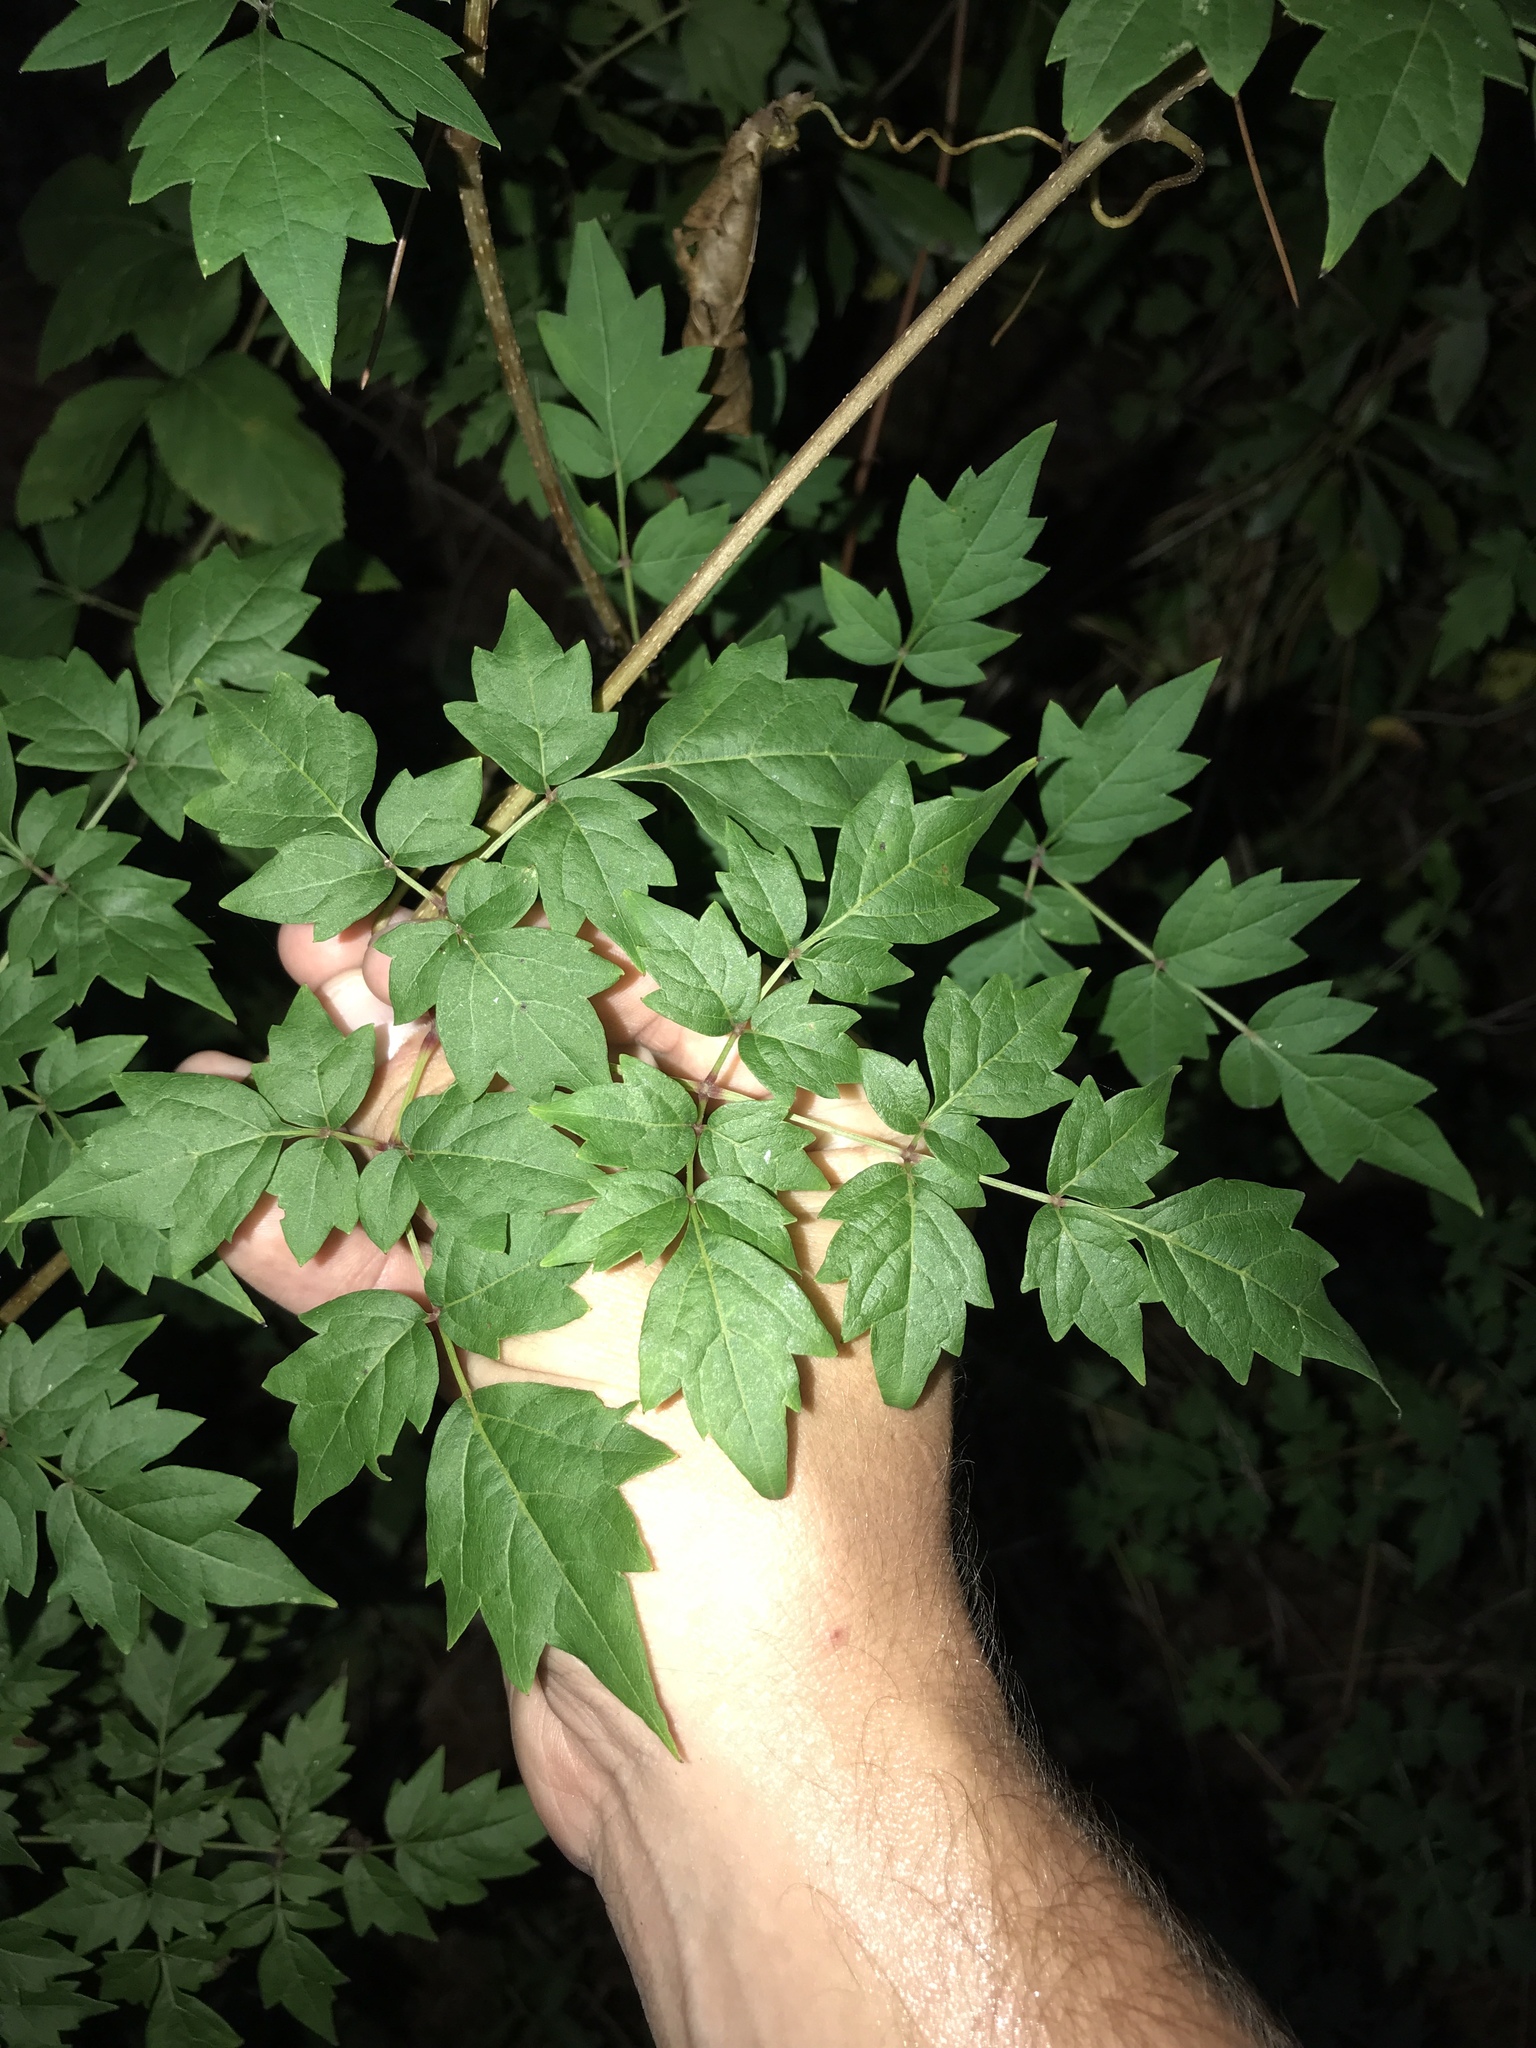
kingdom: Plantae
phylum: Tracheophyta
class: Magnoliopsida
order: Vitales
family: Vitaceae
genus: Nekemias
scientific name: Nekemias arborea
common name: Peppervine
